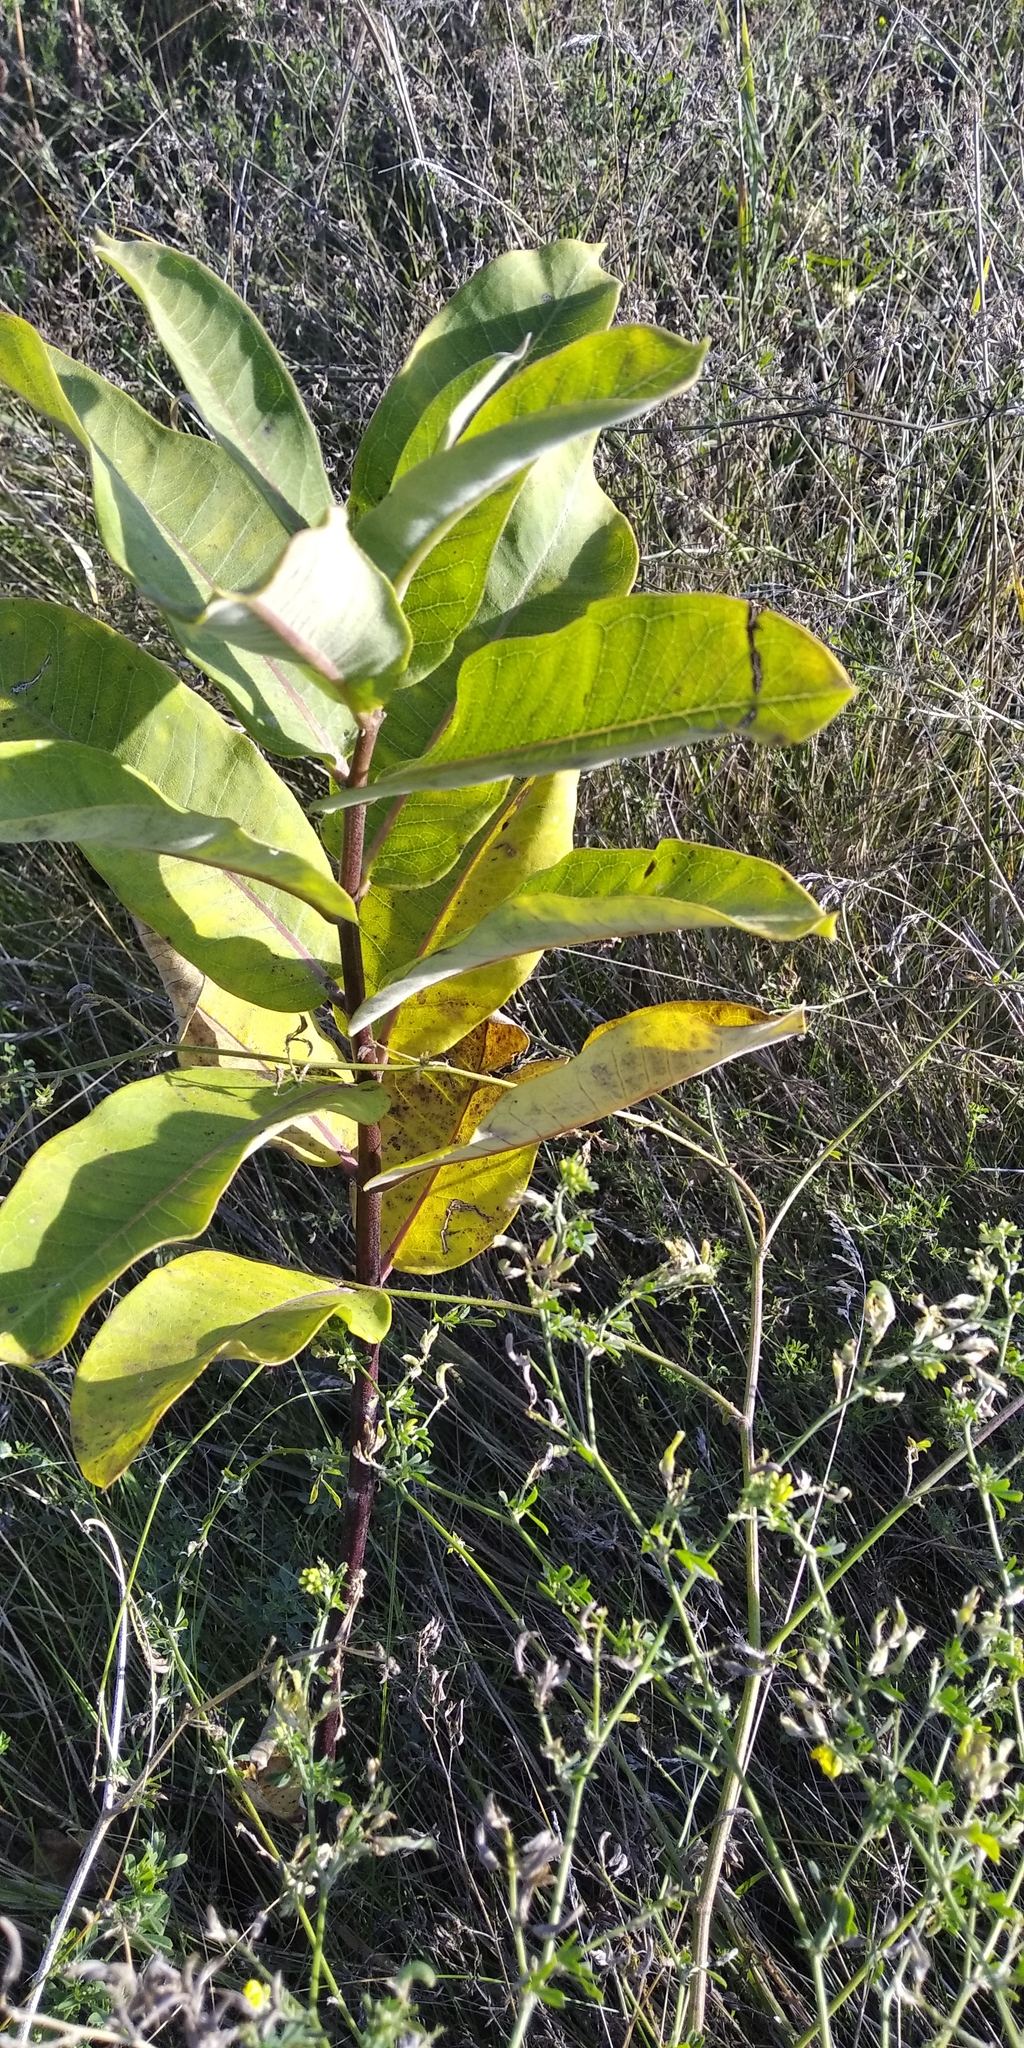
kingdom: Plantae
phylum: Tracheophyta
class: Magnoliopsida
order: Gentianales
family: Apocynaceae
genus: Asclepias
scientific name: Asclepias syriaca
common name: Common milkweed
